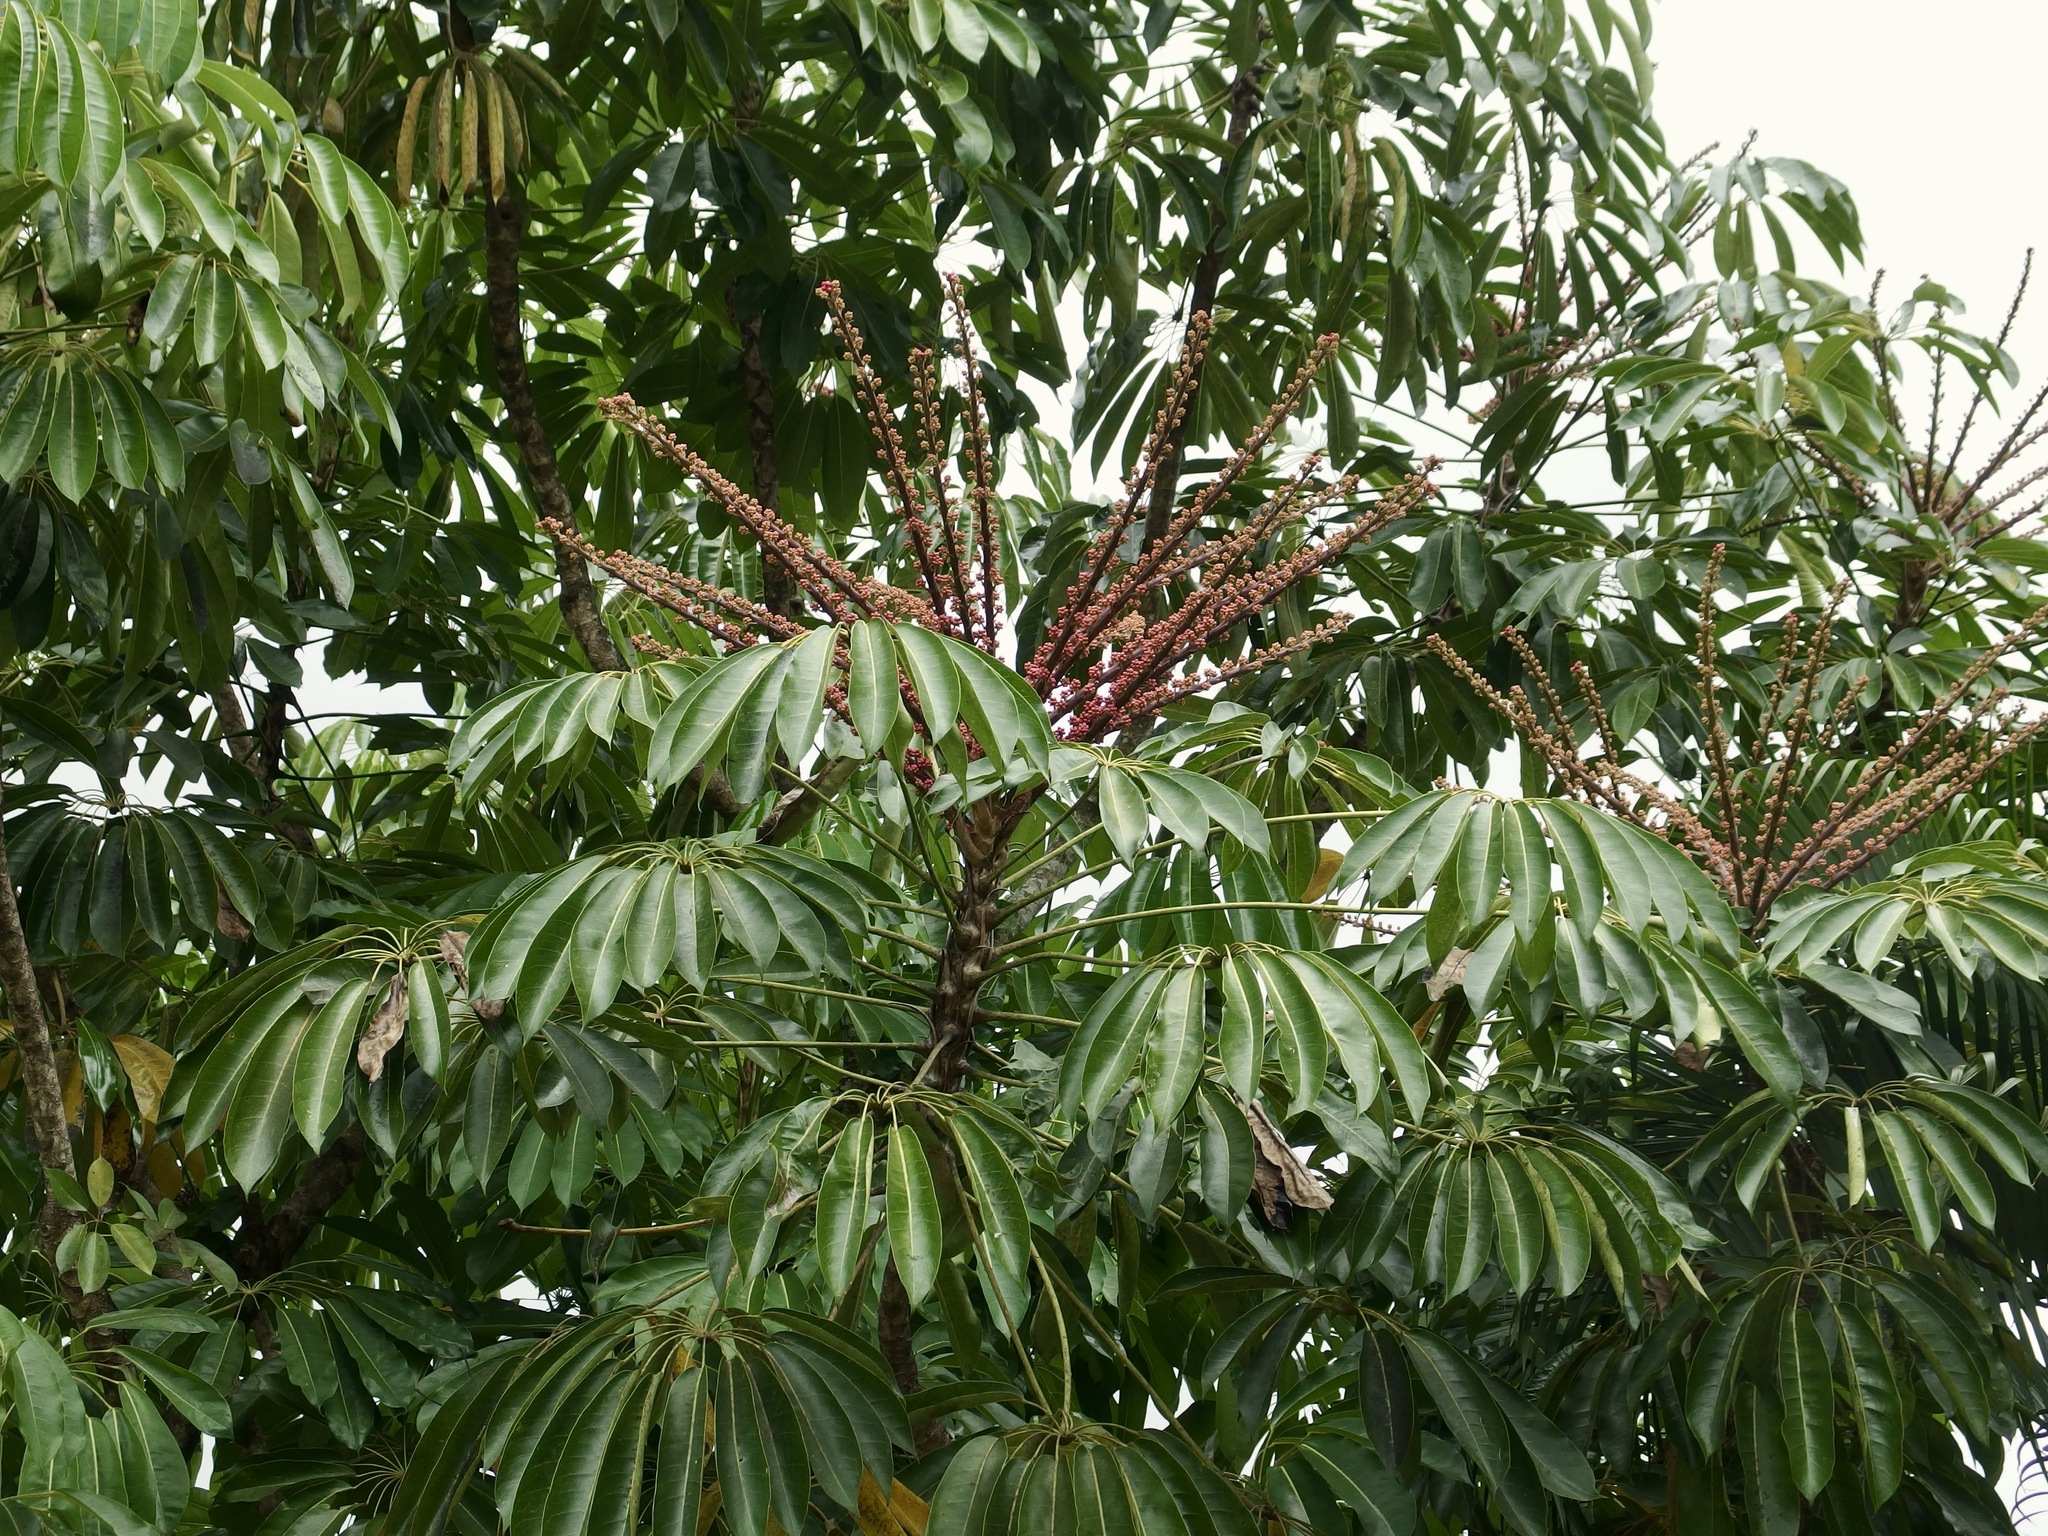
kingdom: Plantae
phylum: Tracheophyta
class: Magnoliopsida
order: Apiales
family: Araliaceae
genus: Heptapleurum
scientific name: Heptapleurum actinophyllum
